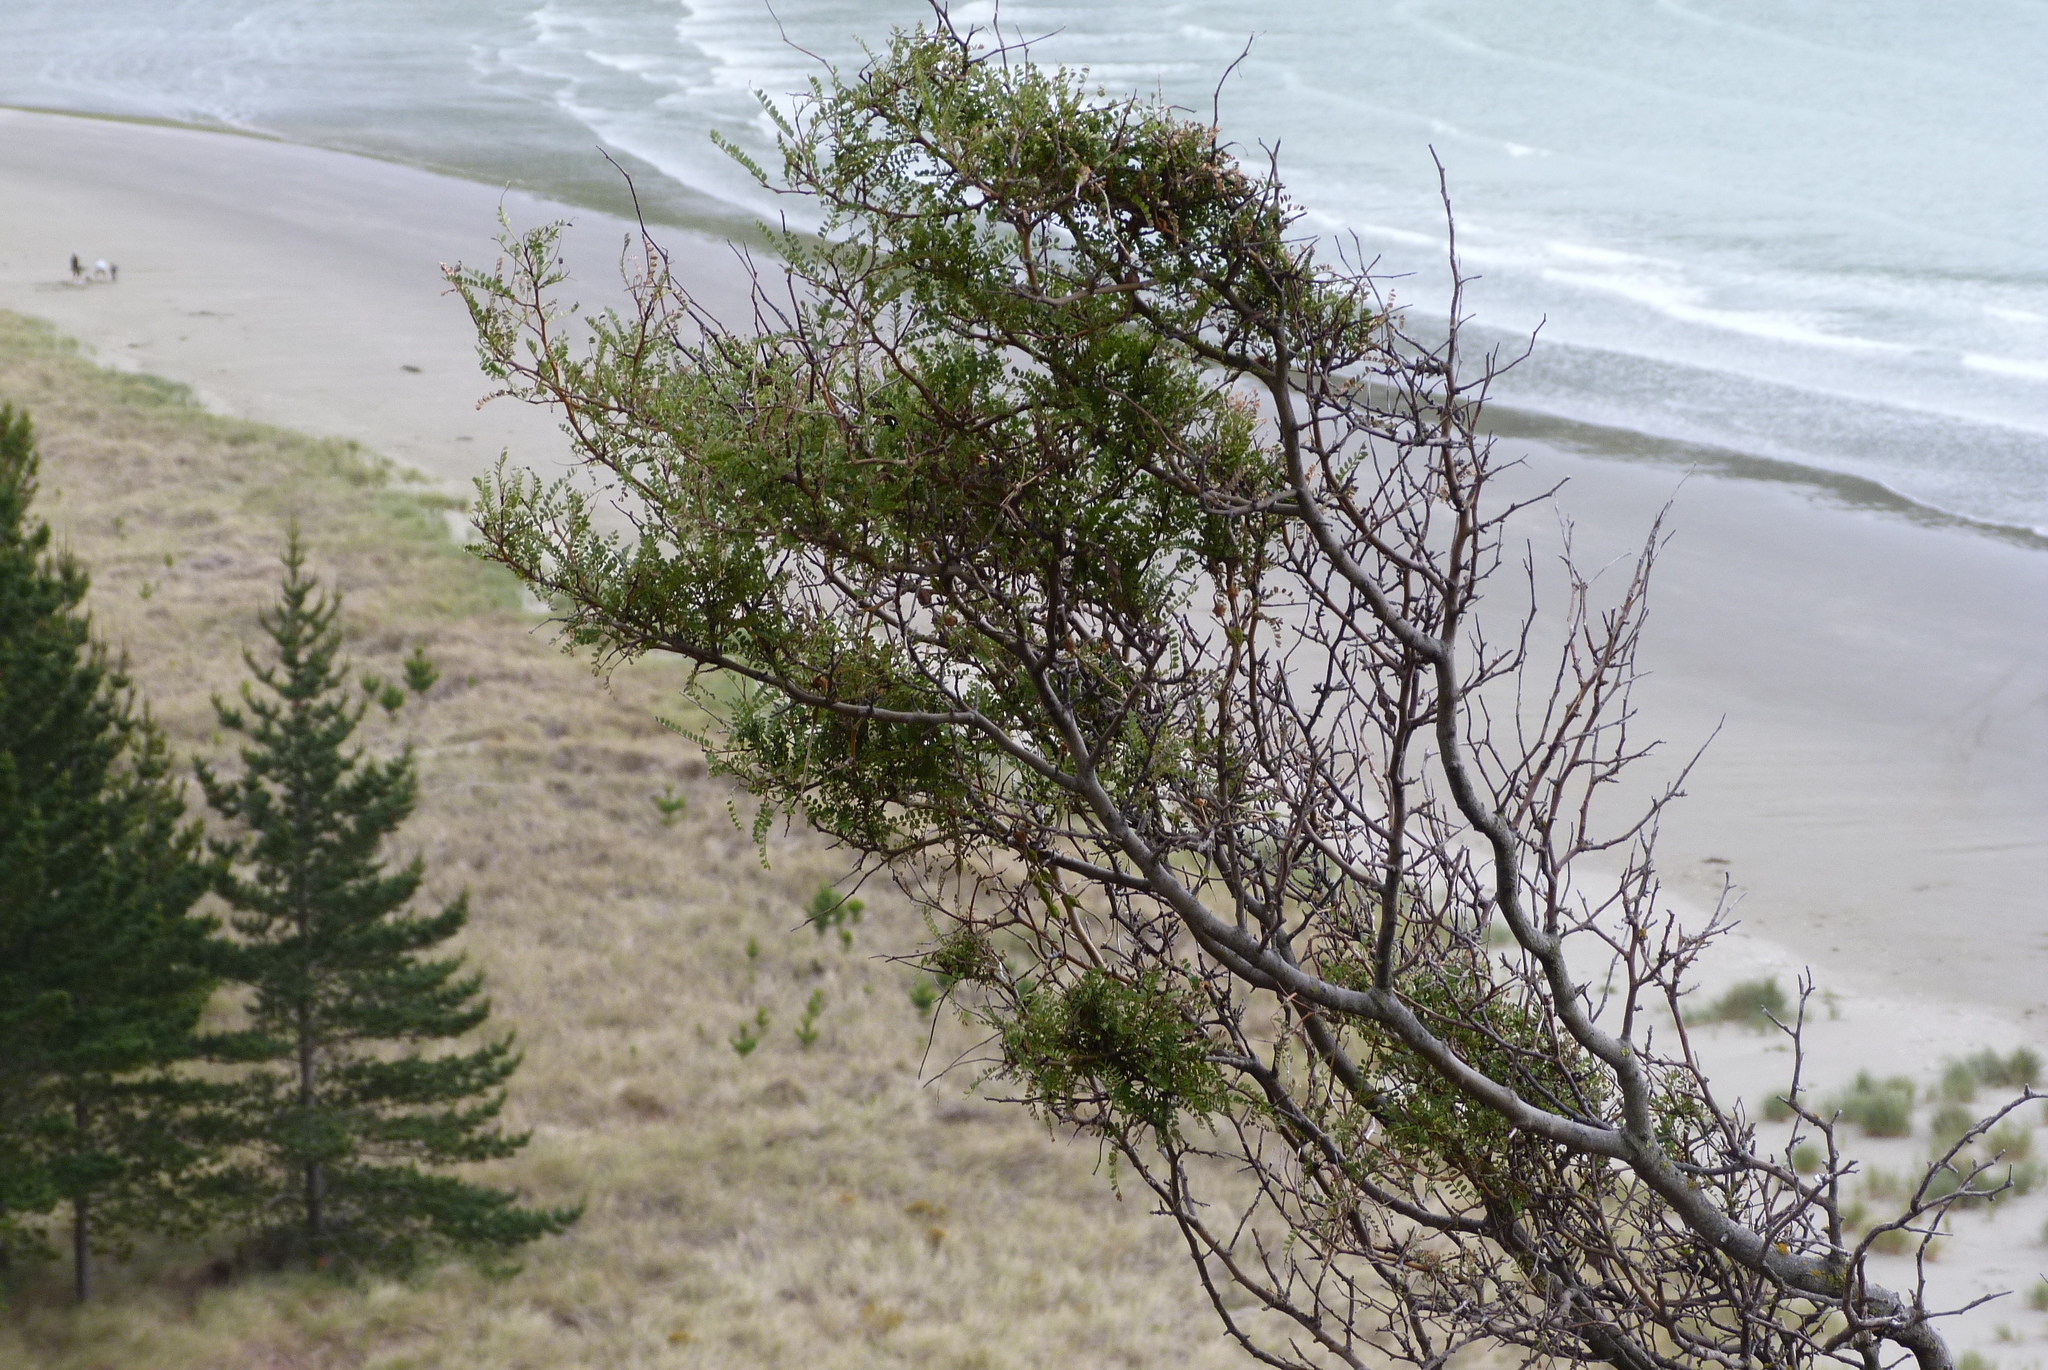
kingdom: Plantae
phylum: Tracheophyta
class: Magnoliopsida
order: Fabales
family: Fabaceae
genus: Sophora
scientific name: Sophora microphylla
